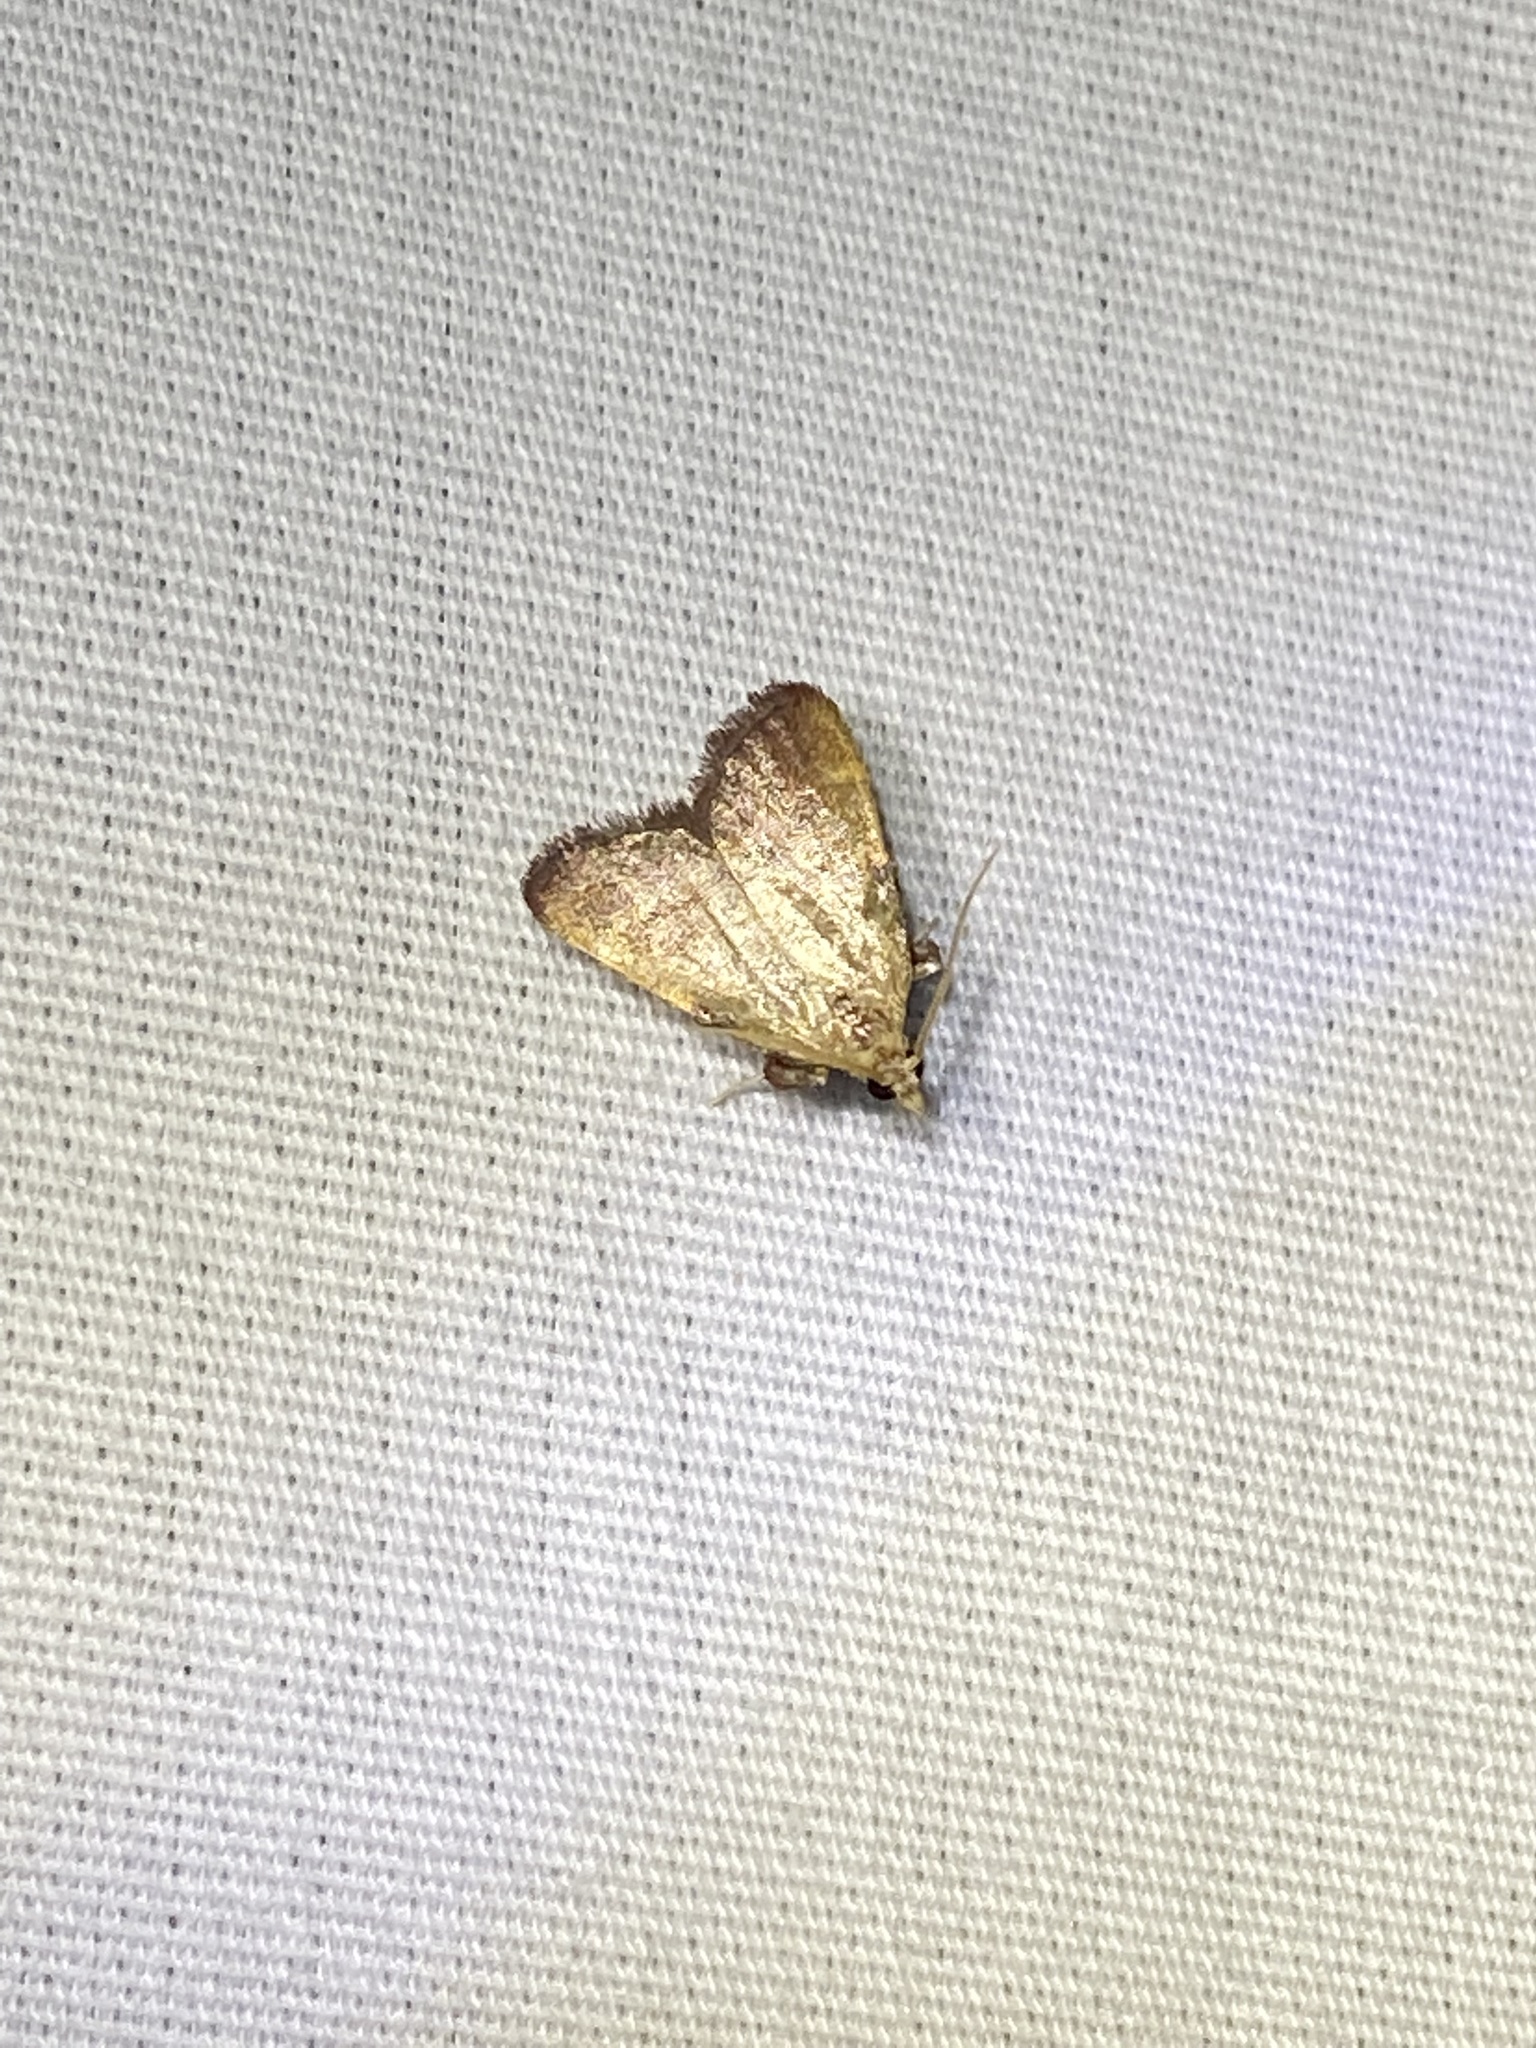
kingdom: Animalia
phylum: Arthropoda
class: Insecta
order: Lepidoptera
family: Pyralidae
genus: Condylolomia
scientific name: Condylolomia participialis
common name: Drab condylolomia moth
